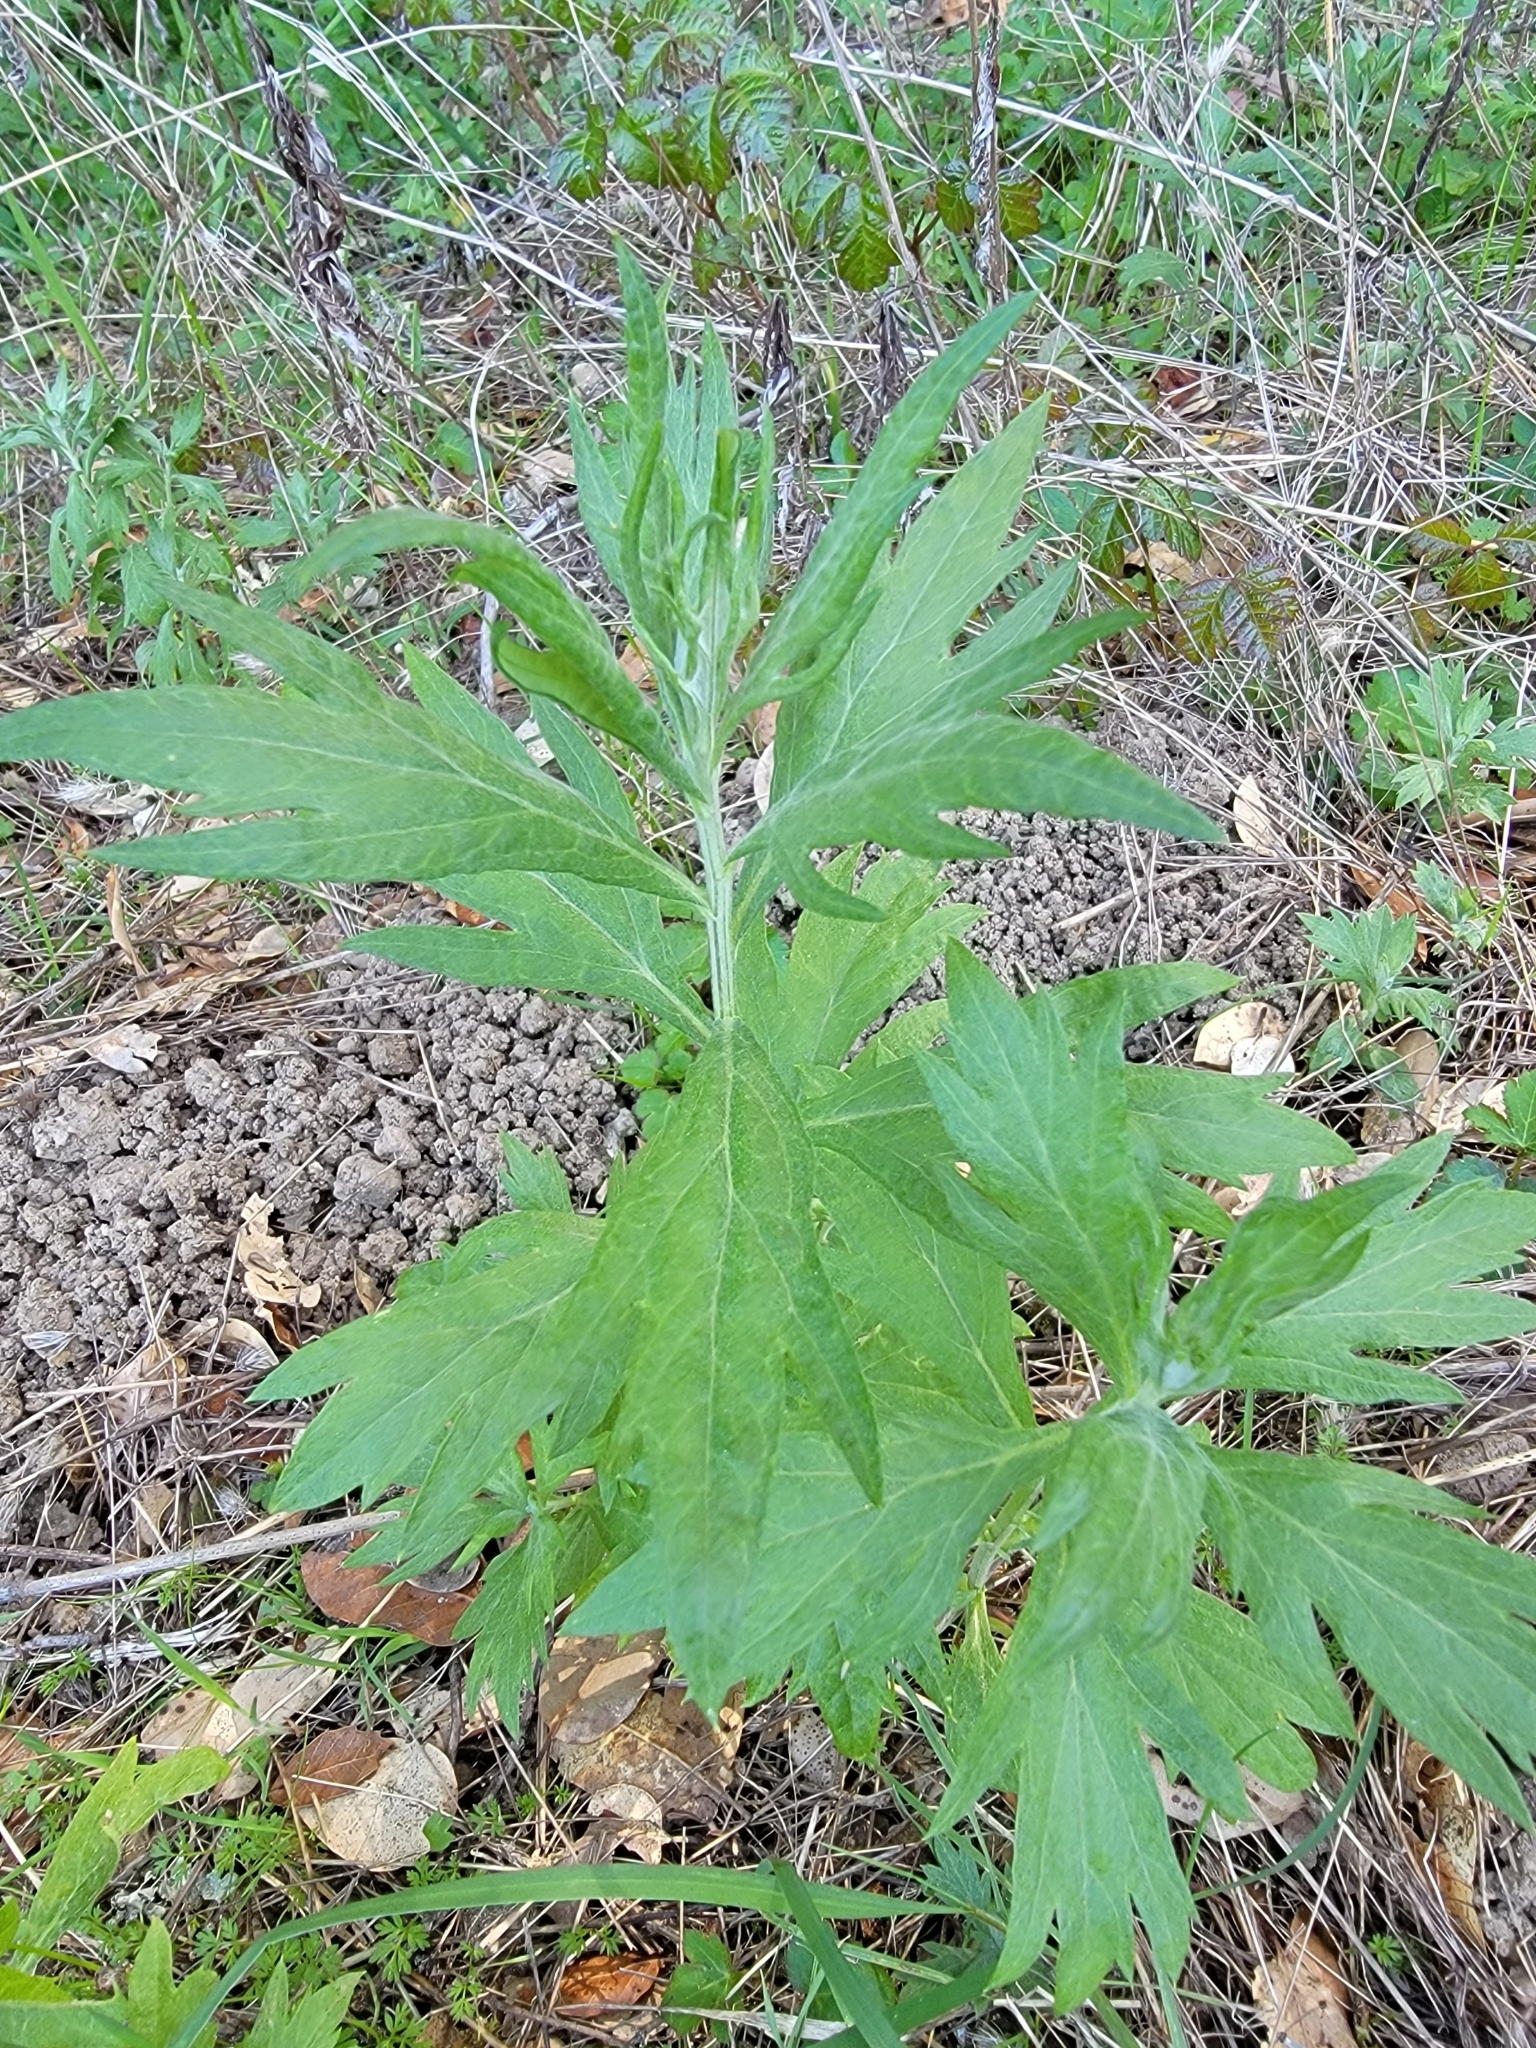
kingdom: Plantae
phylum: Tracheophyta
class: Magnoliopsida
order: Asterales
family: Asteraceae
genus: Artemisia
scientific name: Artemisia douglasiana
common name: Northwest mugwort
